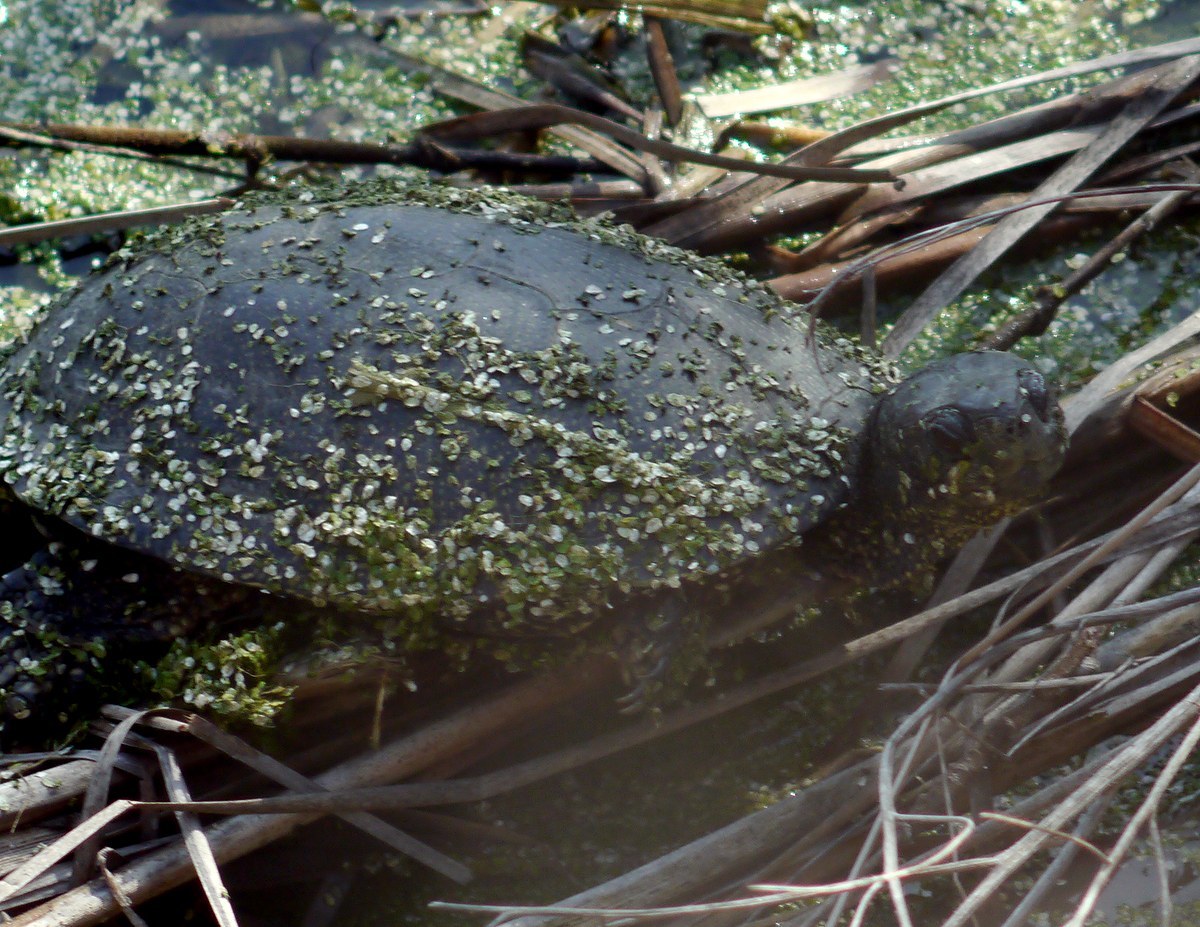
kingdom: Animalia
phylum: Chordata
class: Testudines
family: Emydidae
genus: Emys
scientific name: Emys orbicularis
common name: European pond turtle
